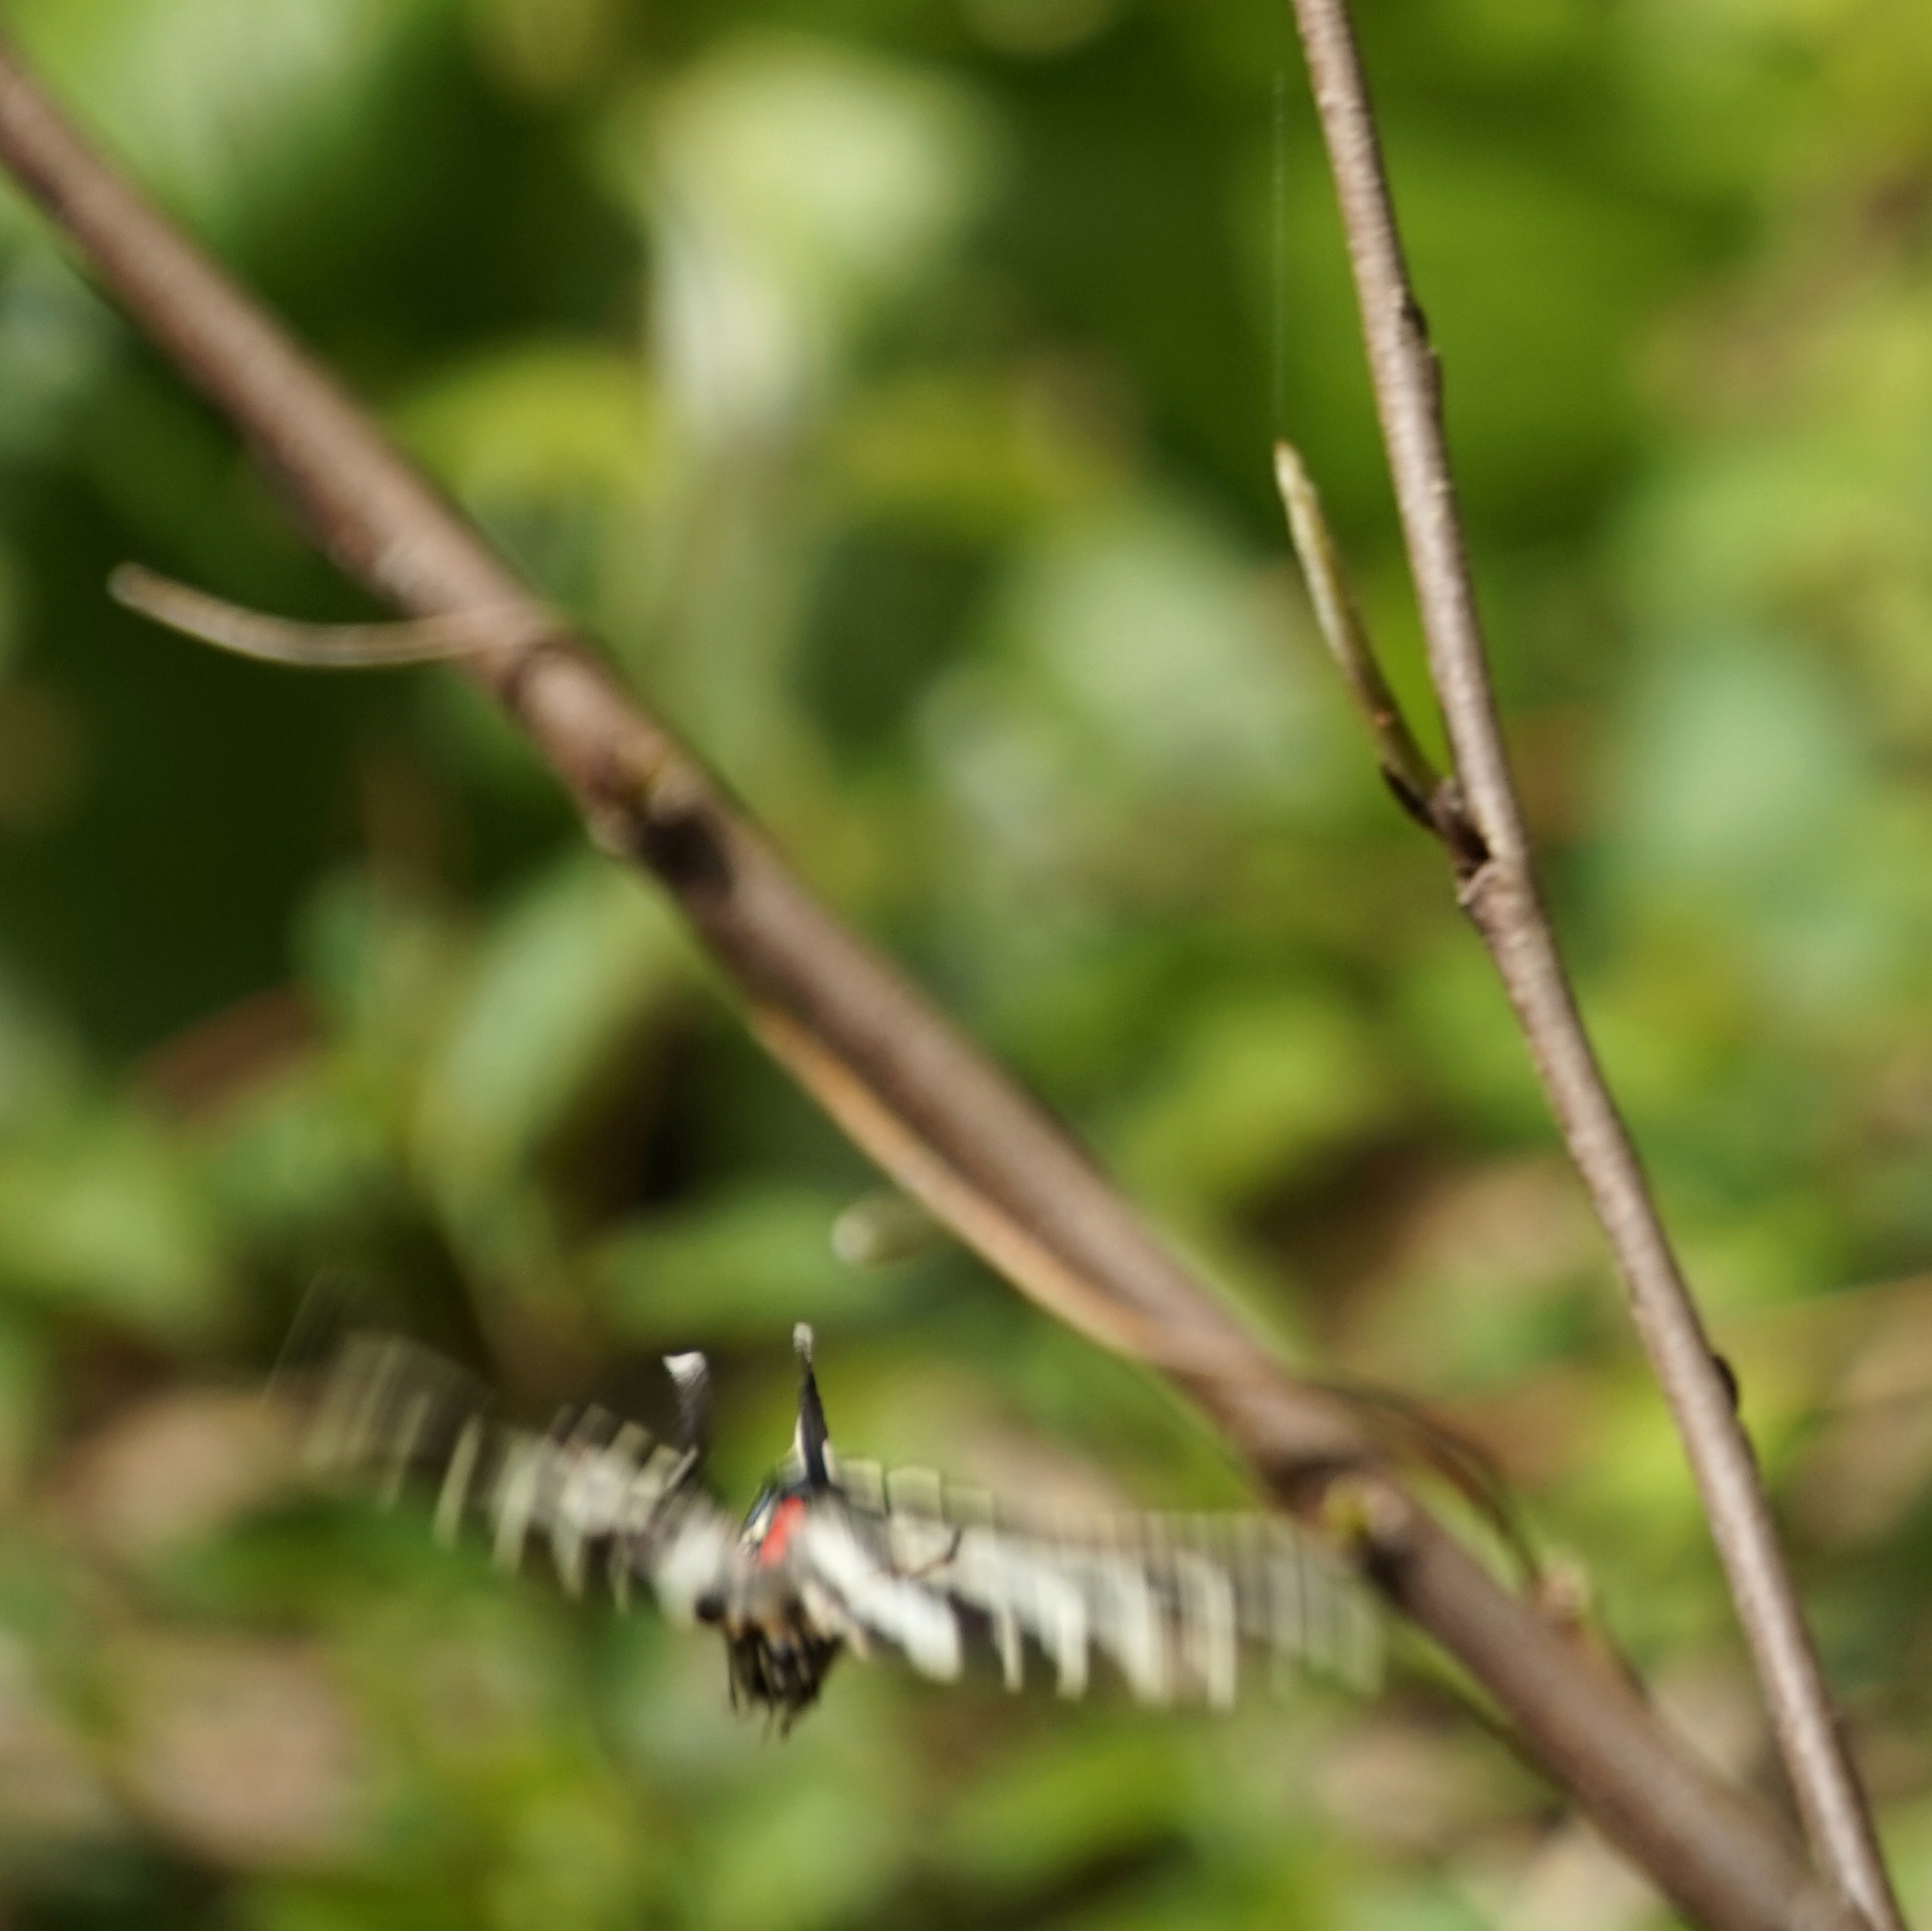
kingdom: Animalia
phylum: Arthropoda
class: Insecta
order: Lepidoptera
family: Papilionidae
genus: Protographium
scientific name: Protographium marcellus
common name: Zebra swallowtail
